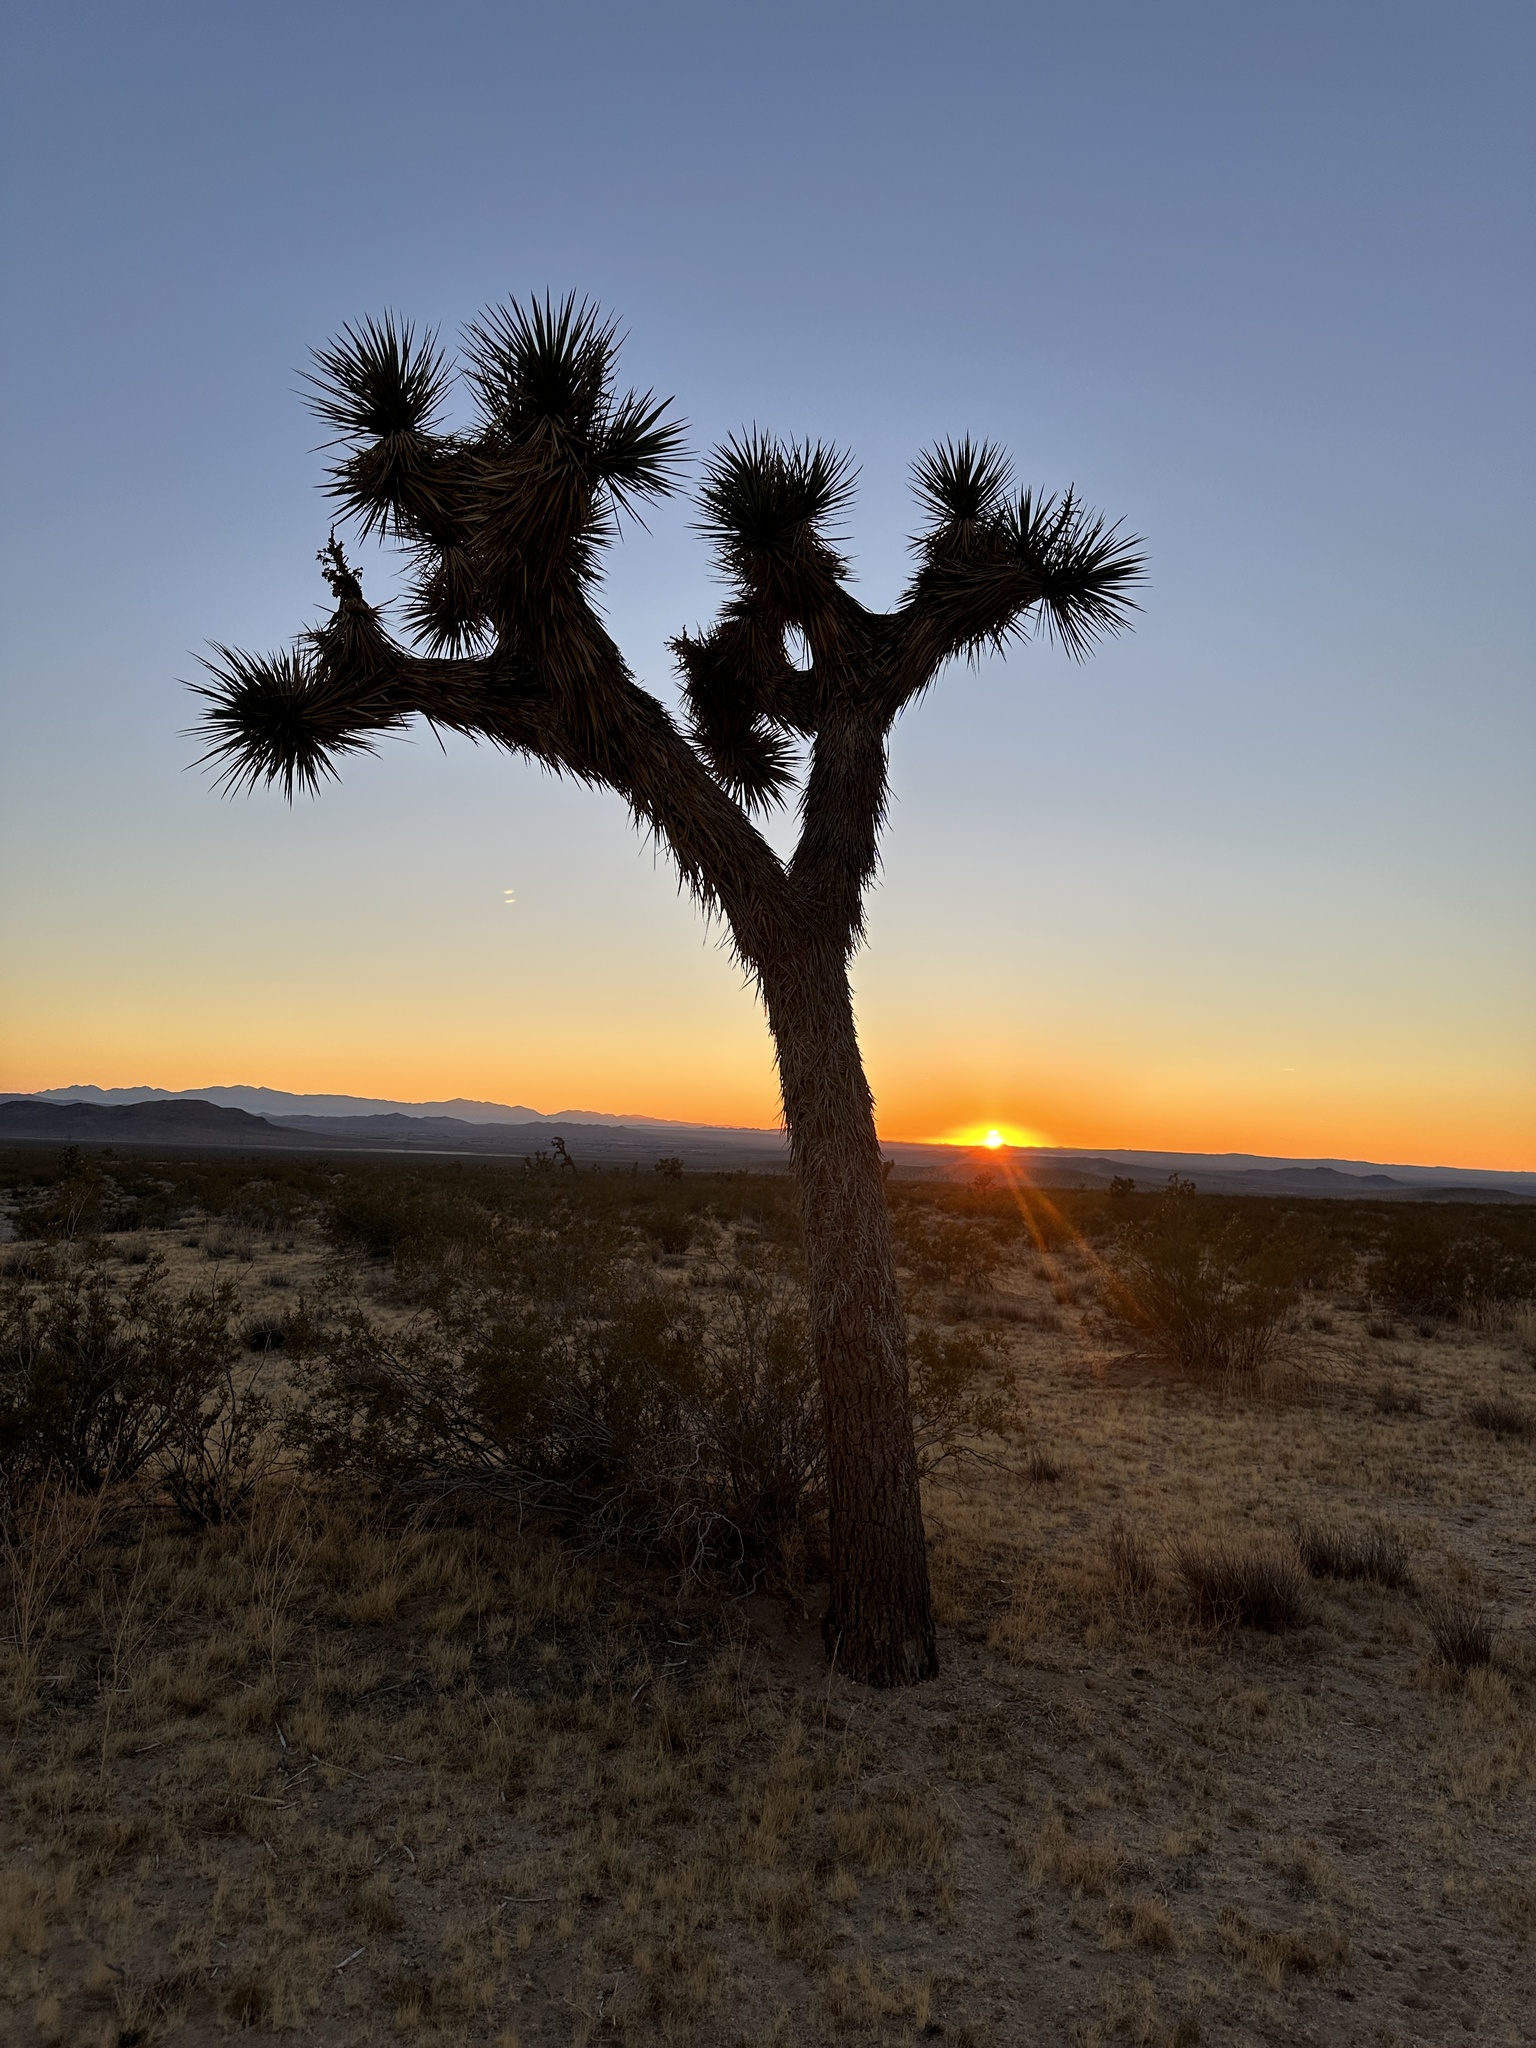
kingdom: Plantae
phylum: Tracheophyta
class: Liliopsida
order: Asparagales
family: Asparagaceae
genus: Yucca
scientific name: Yucca brevifolia
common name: Joshua tree
